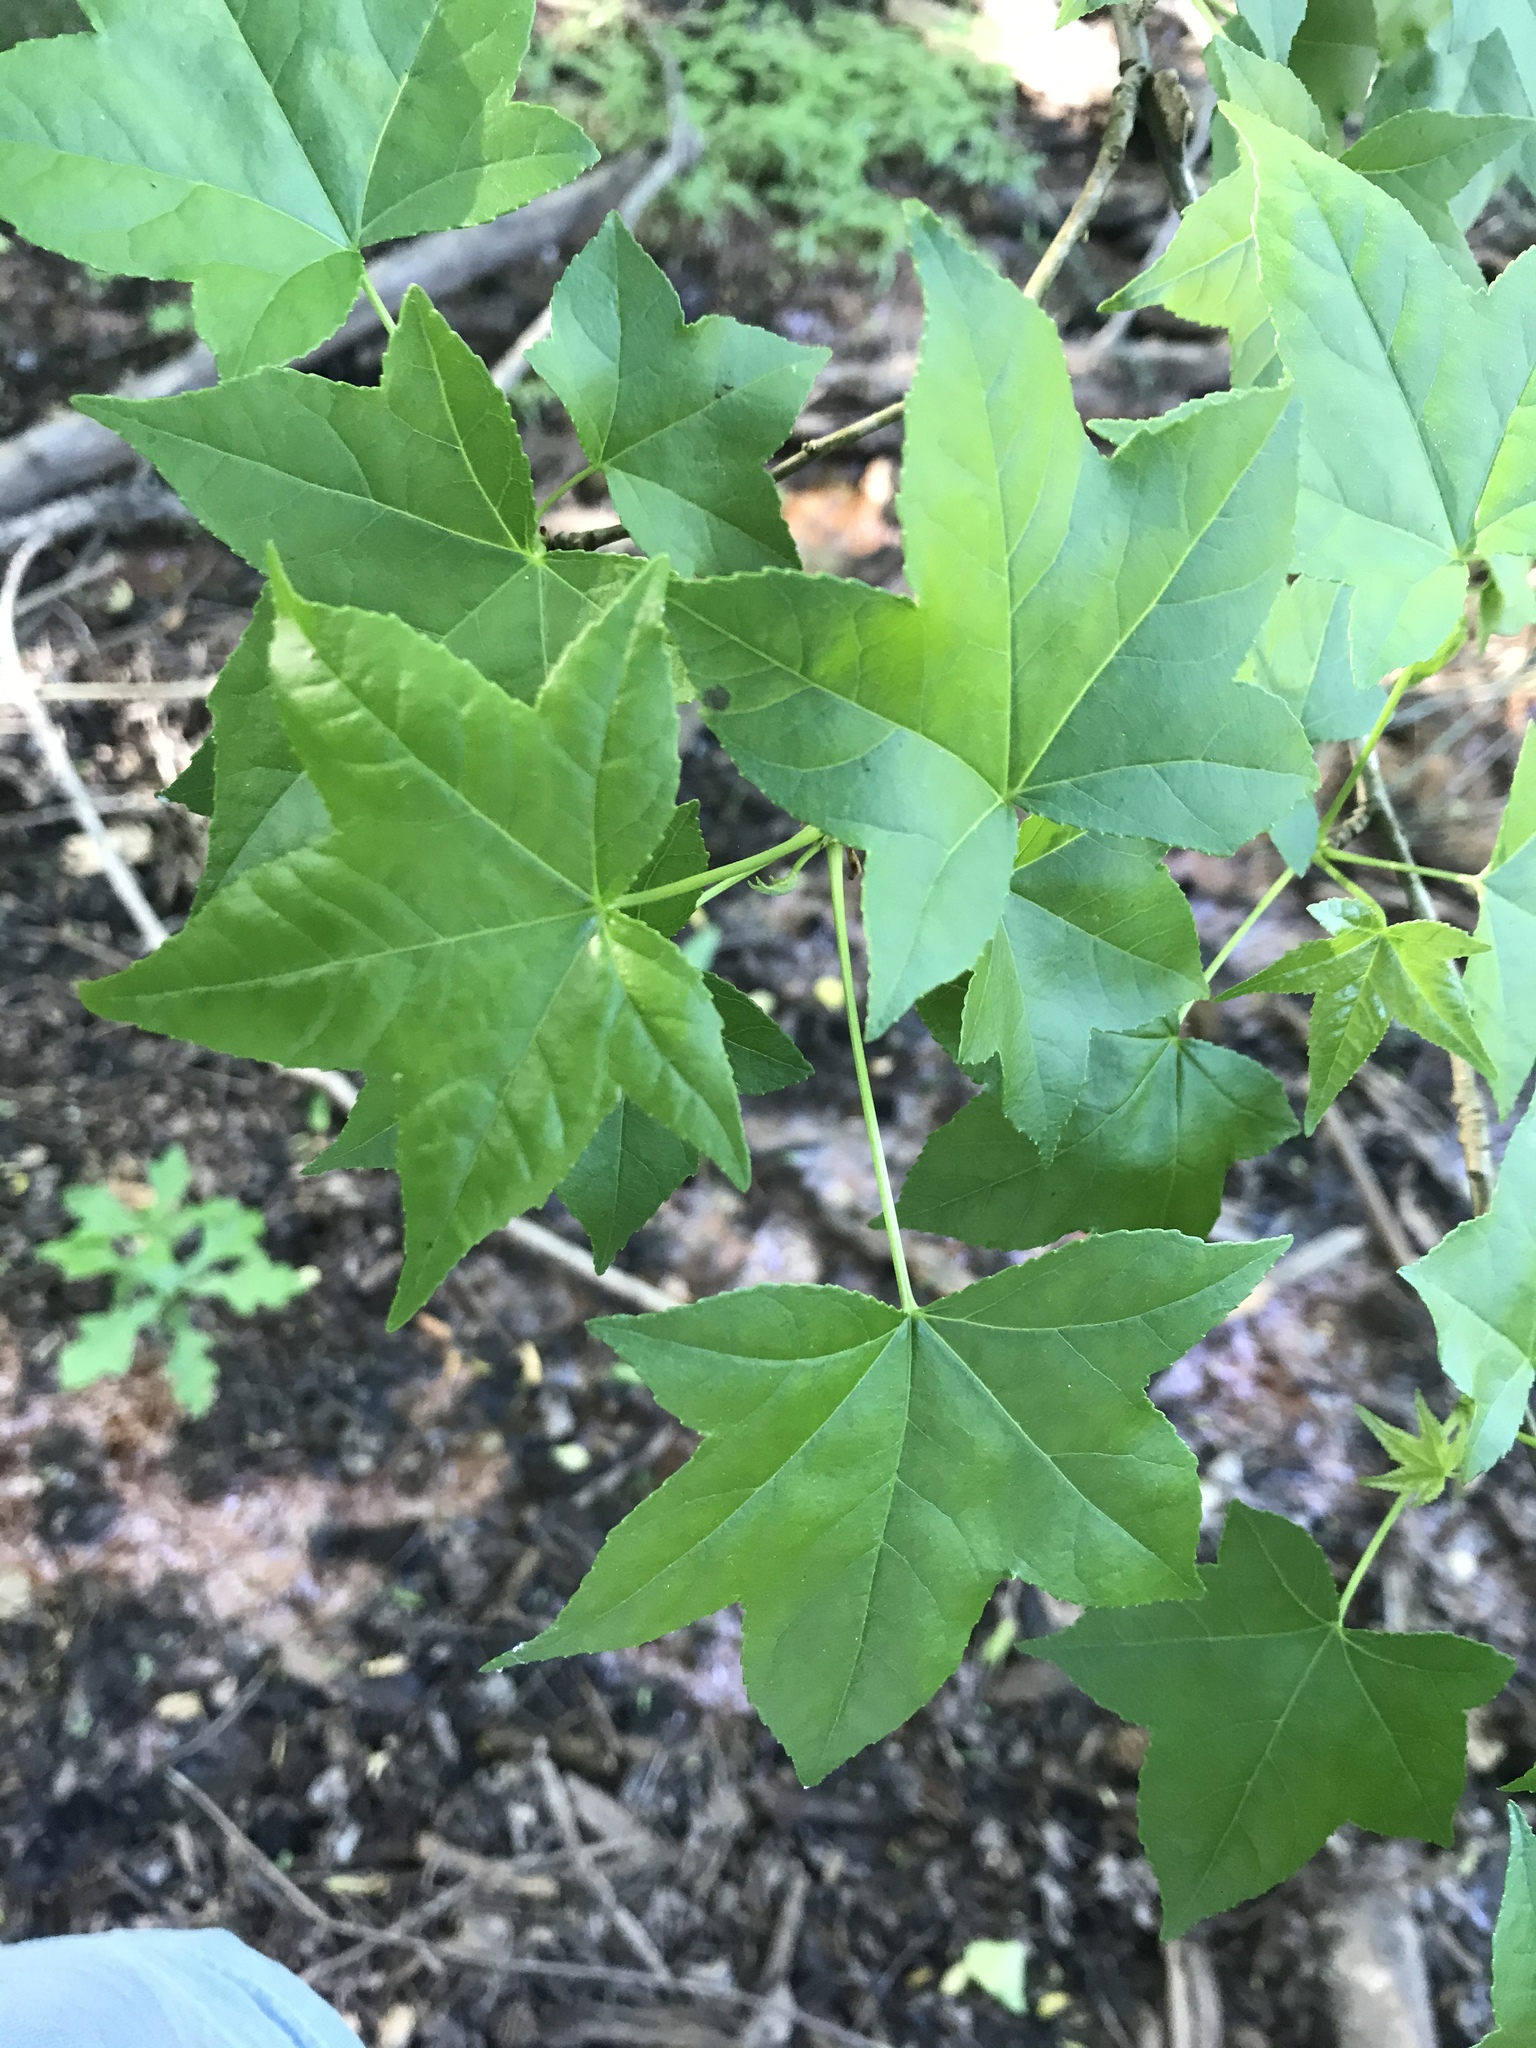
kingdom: Plantae
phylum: Tracheophyta
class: Magnoliopsida
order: Saxifragales
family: Altingiaceae
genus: Liquidambar
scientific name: Liquidambar styraciflua
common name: Sweet gum
